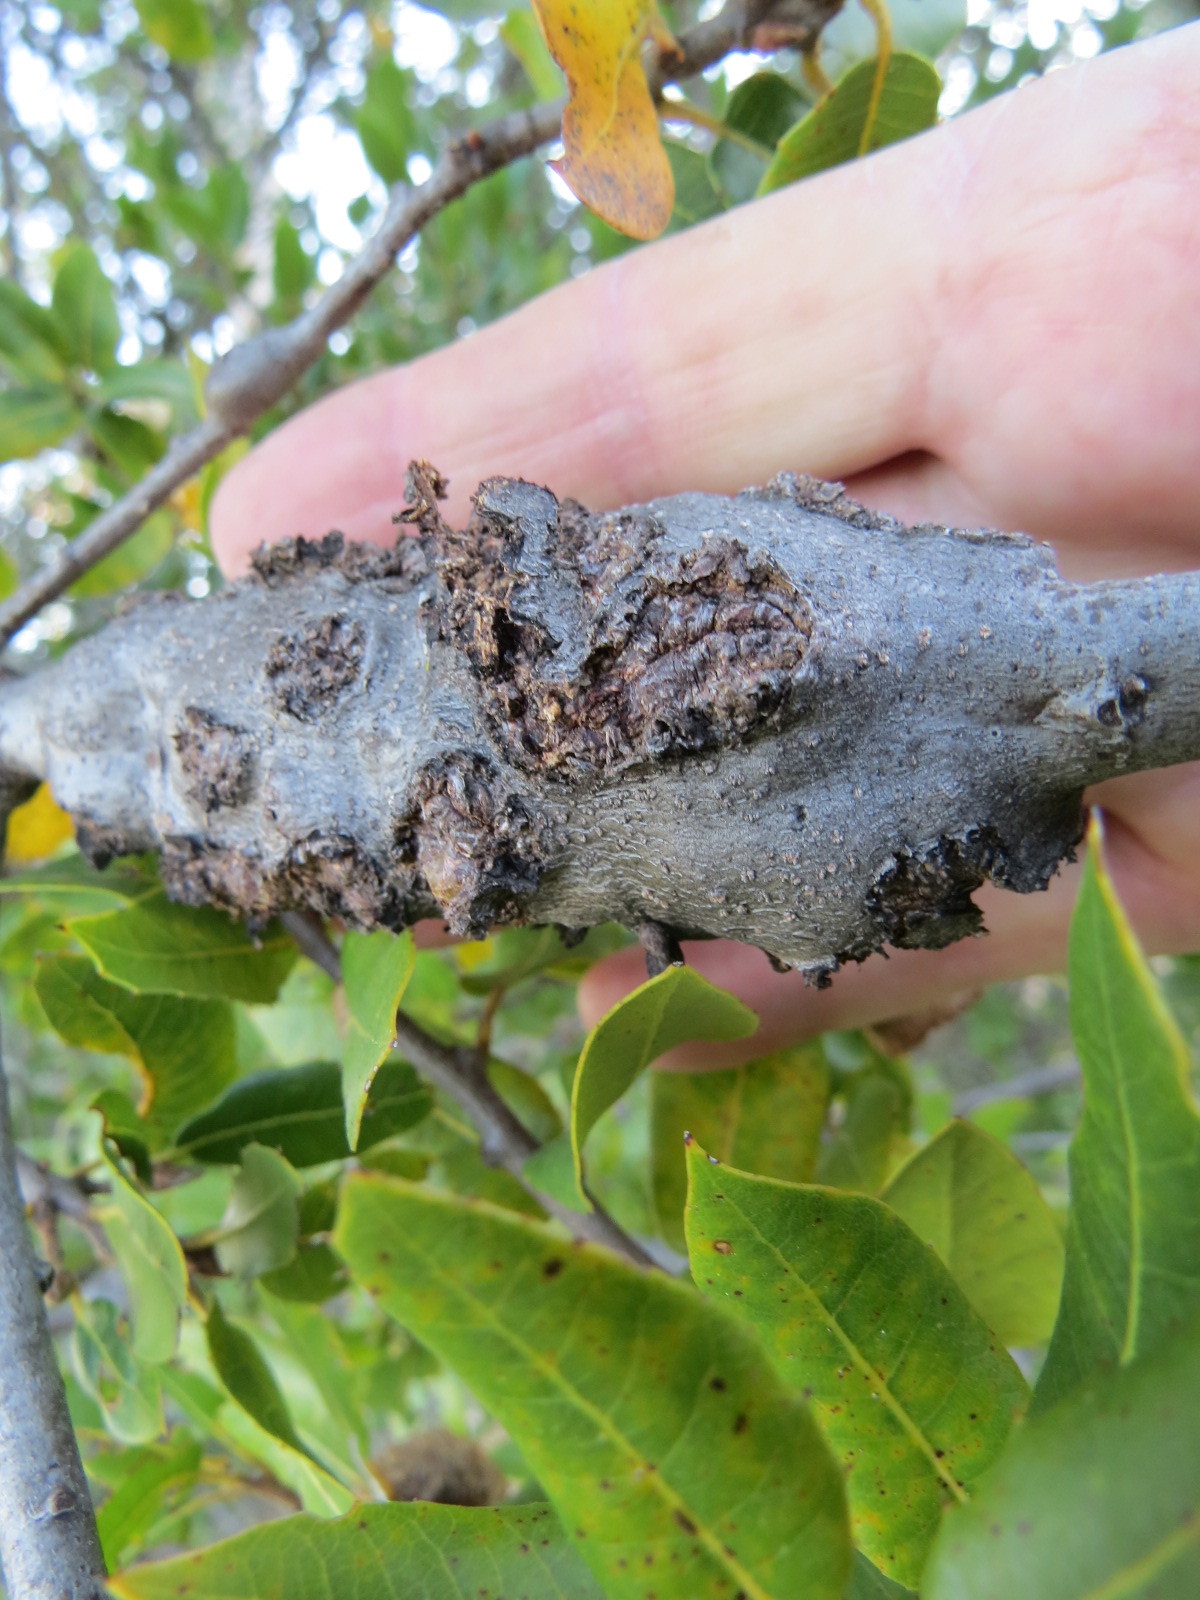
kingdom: Animalia
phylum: Arthropoda
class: Insecta
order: Hymenoptera
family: Cynipidae
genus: Callirhytis
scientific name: Callirhytis
